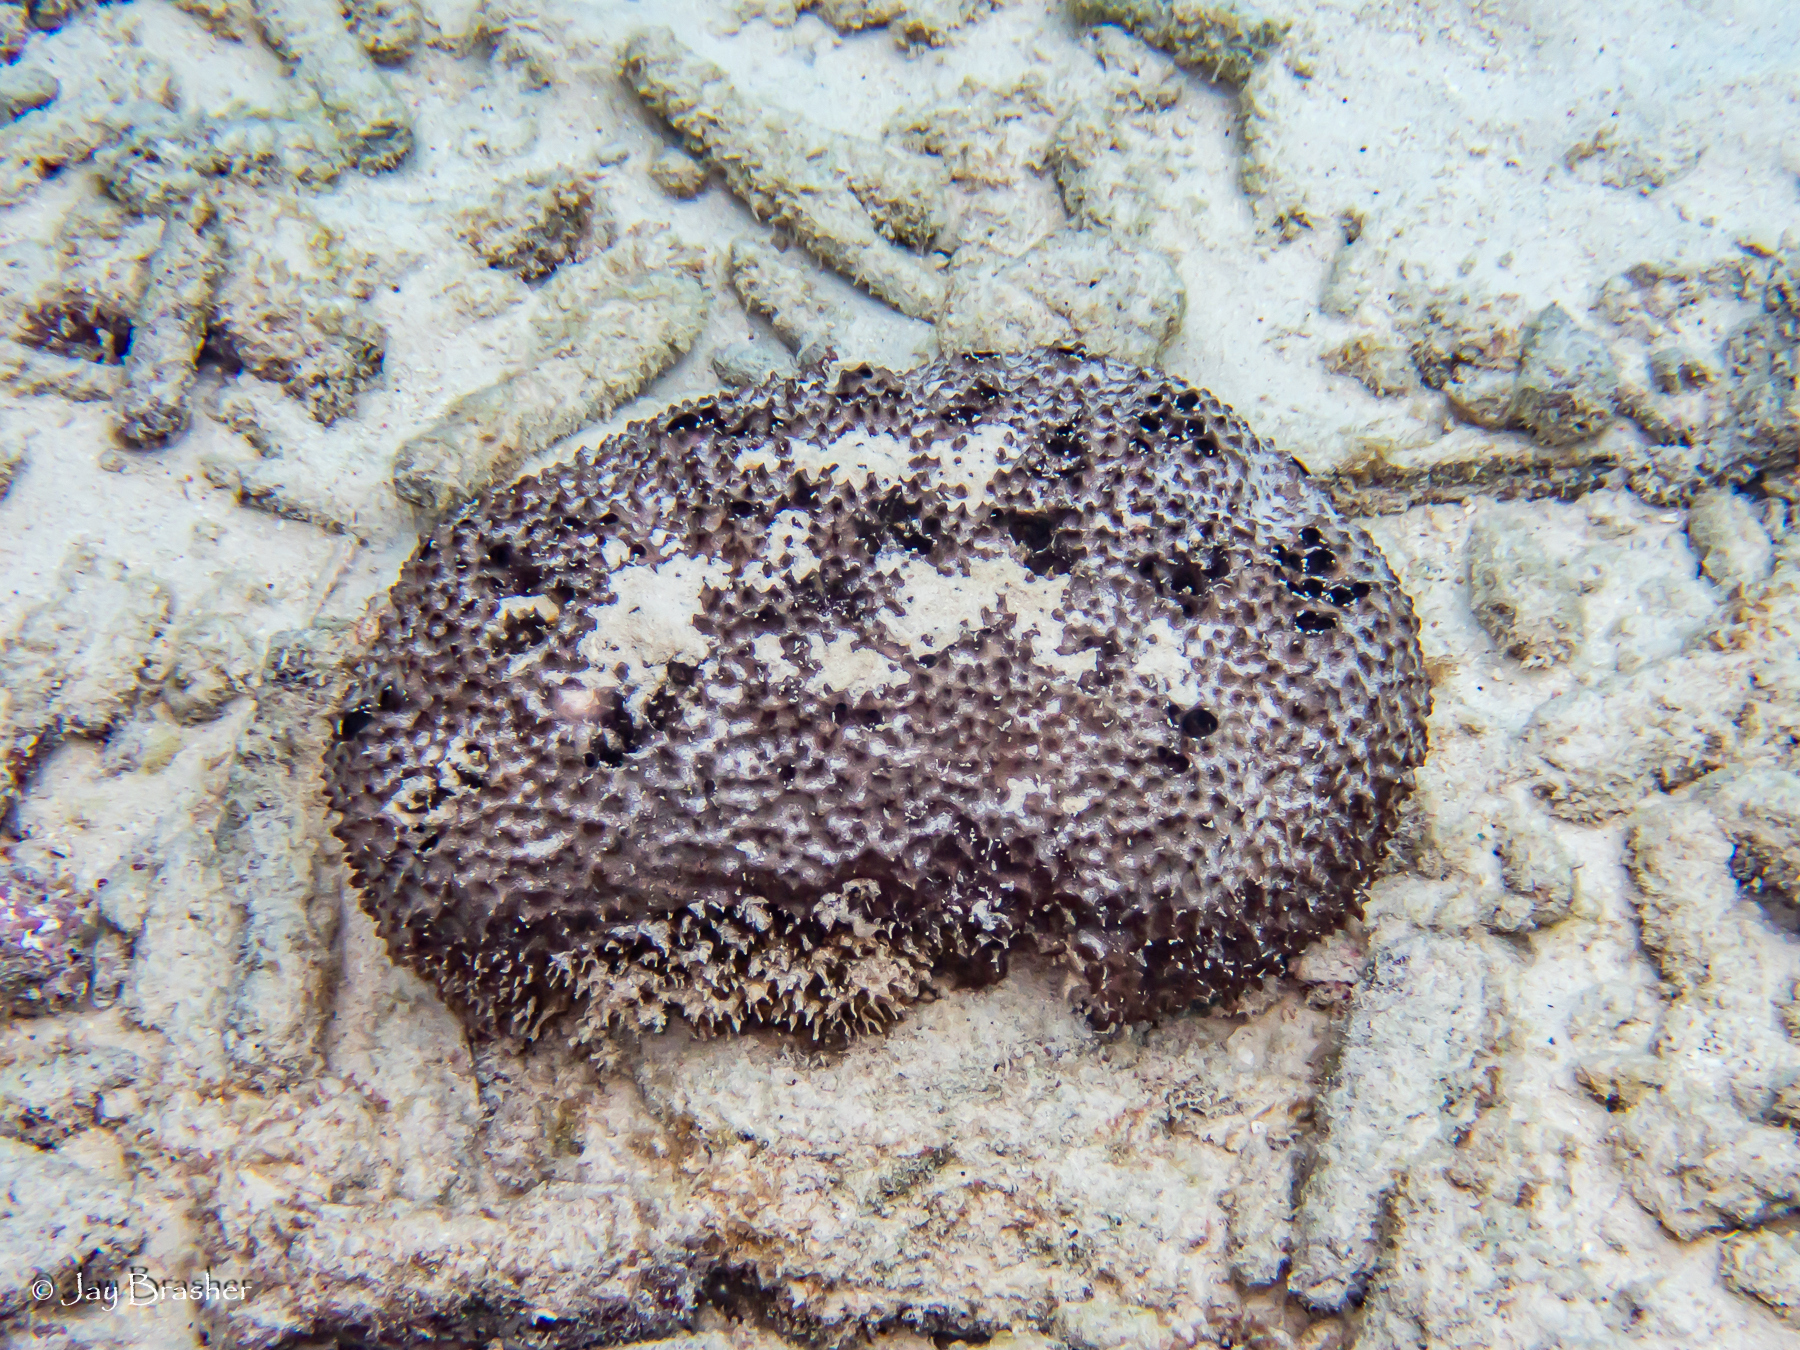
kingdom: Animalia
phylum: Porifera
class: Demospongiae
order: Dictyoceratida
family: Irciniidae
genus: Ircinia
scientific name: Ircinia felix
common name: Stinker sponge
